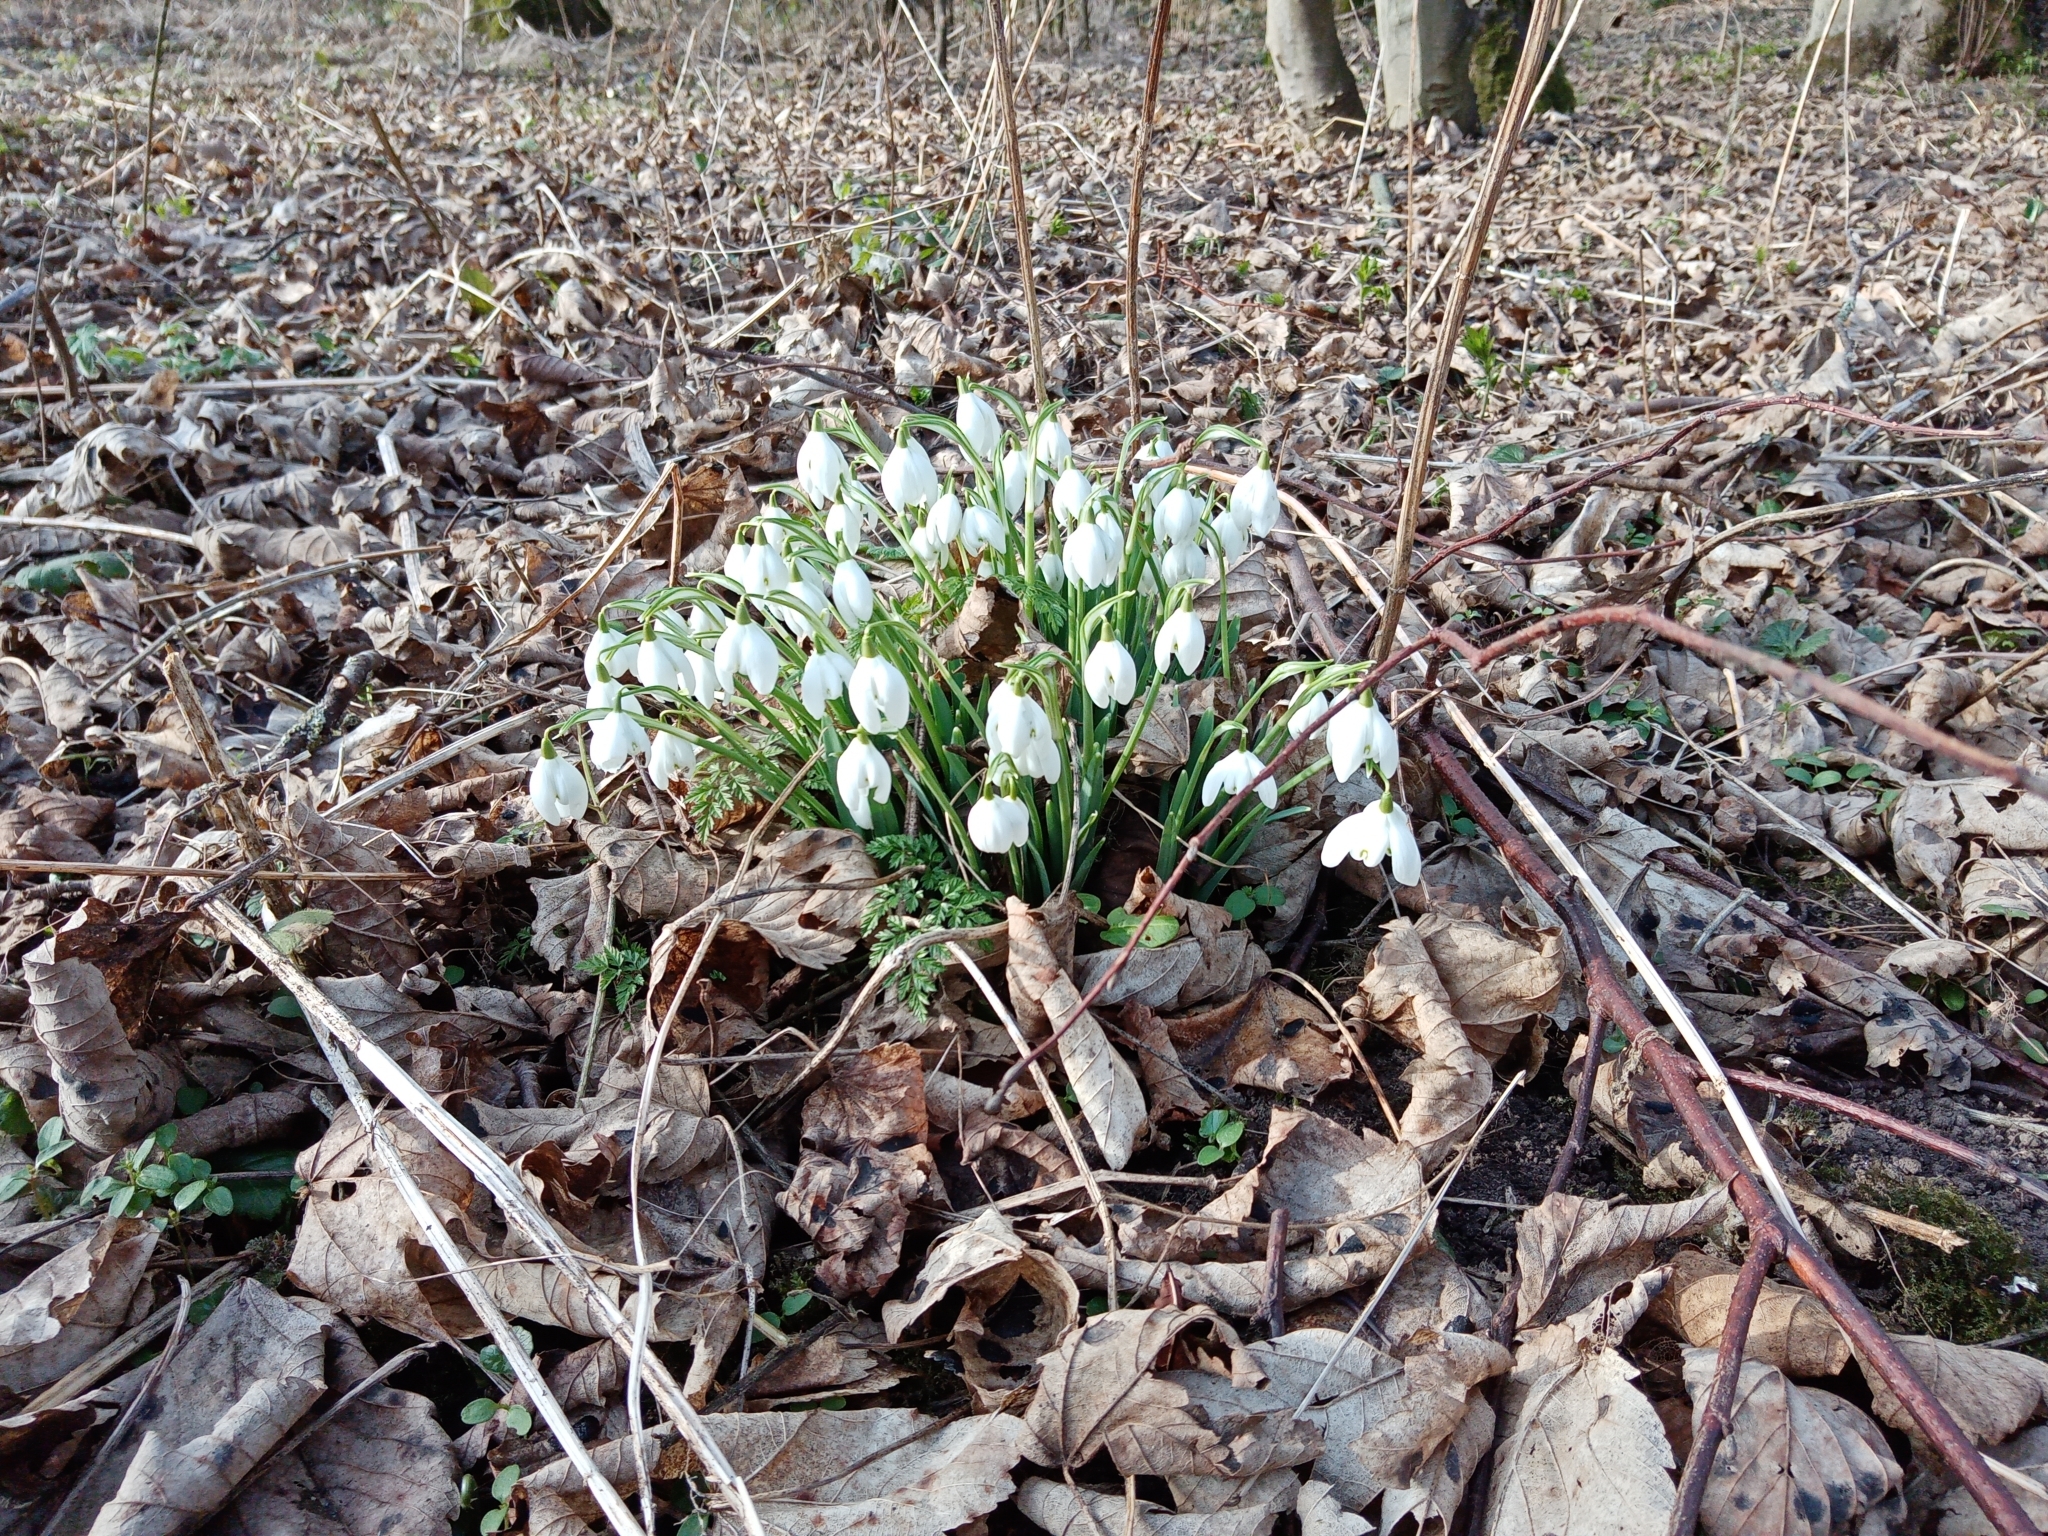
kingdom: Plantae
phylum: Tracheophyta
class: Liliopsida
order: Asparagales
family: Amaryllidaceae
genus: Galanthus
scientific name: Galanthus nivalis
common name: Snowdrop
